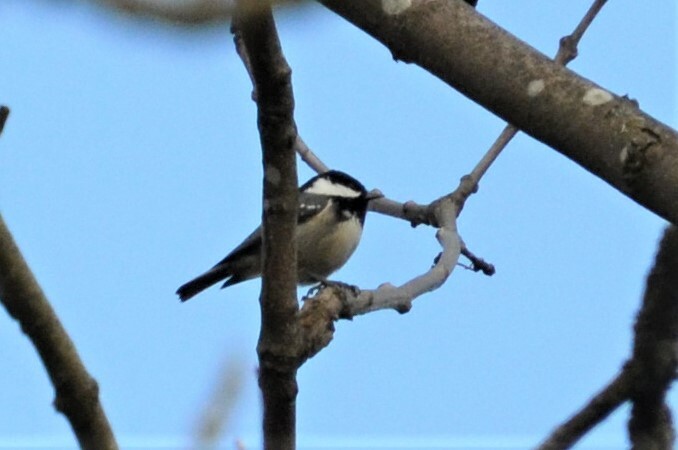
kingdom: Animalia
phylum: Chordata
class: Aves
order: Passeriformes
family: Paridae
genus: Periparus
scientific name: Periparus ater
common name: Coal tit
